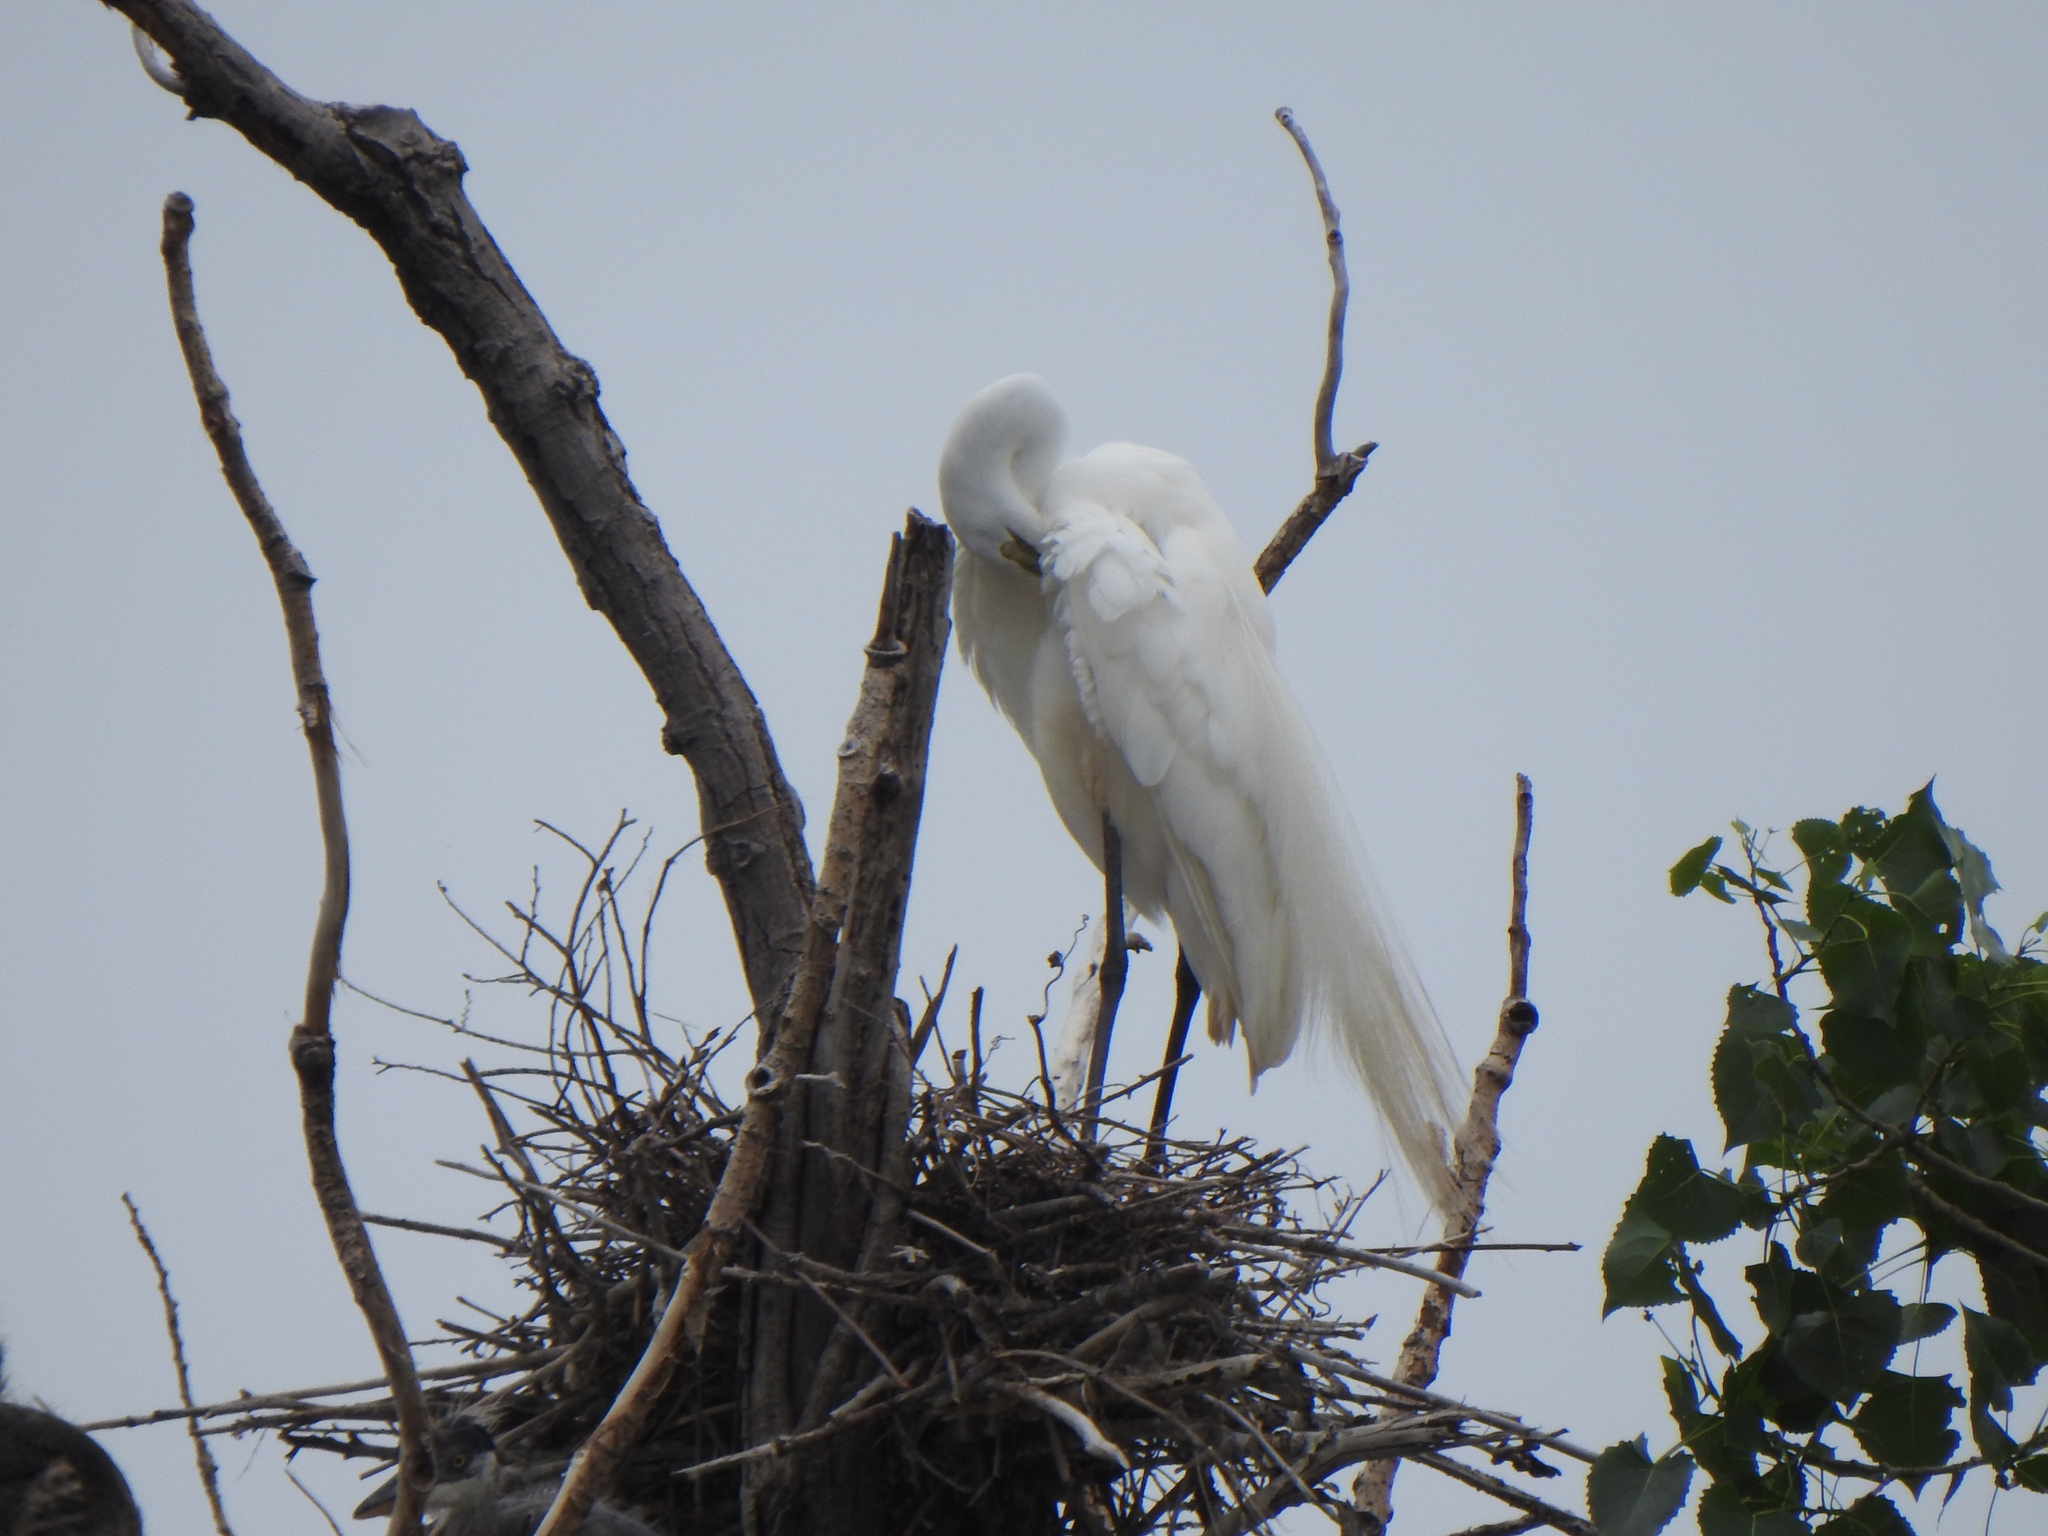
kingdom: Animalia
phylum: Chordata
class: Aves
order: Pelecaniformes
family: Ardeidae
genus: Ardea
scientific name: Ardea alba
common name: Great egret
